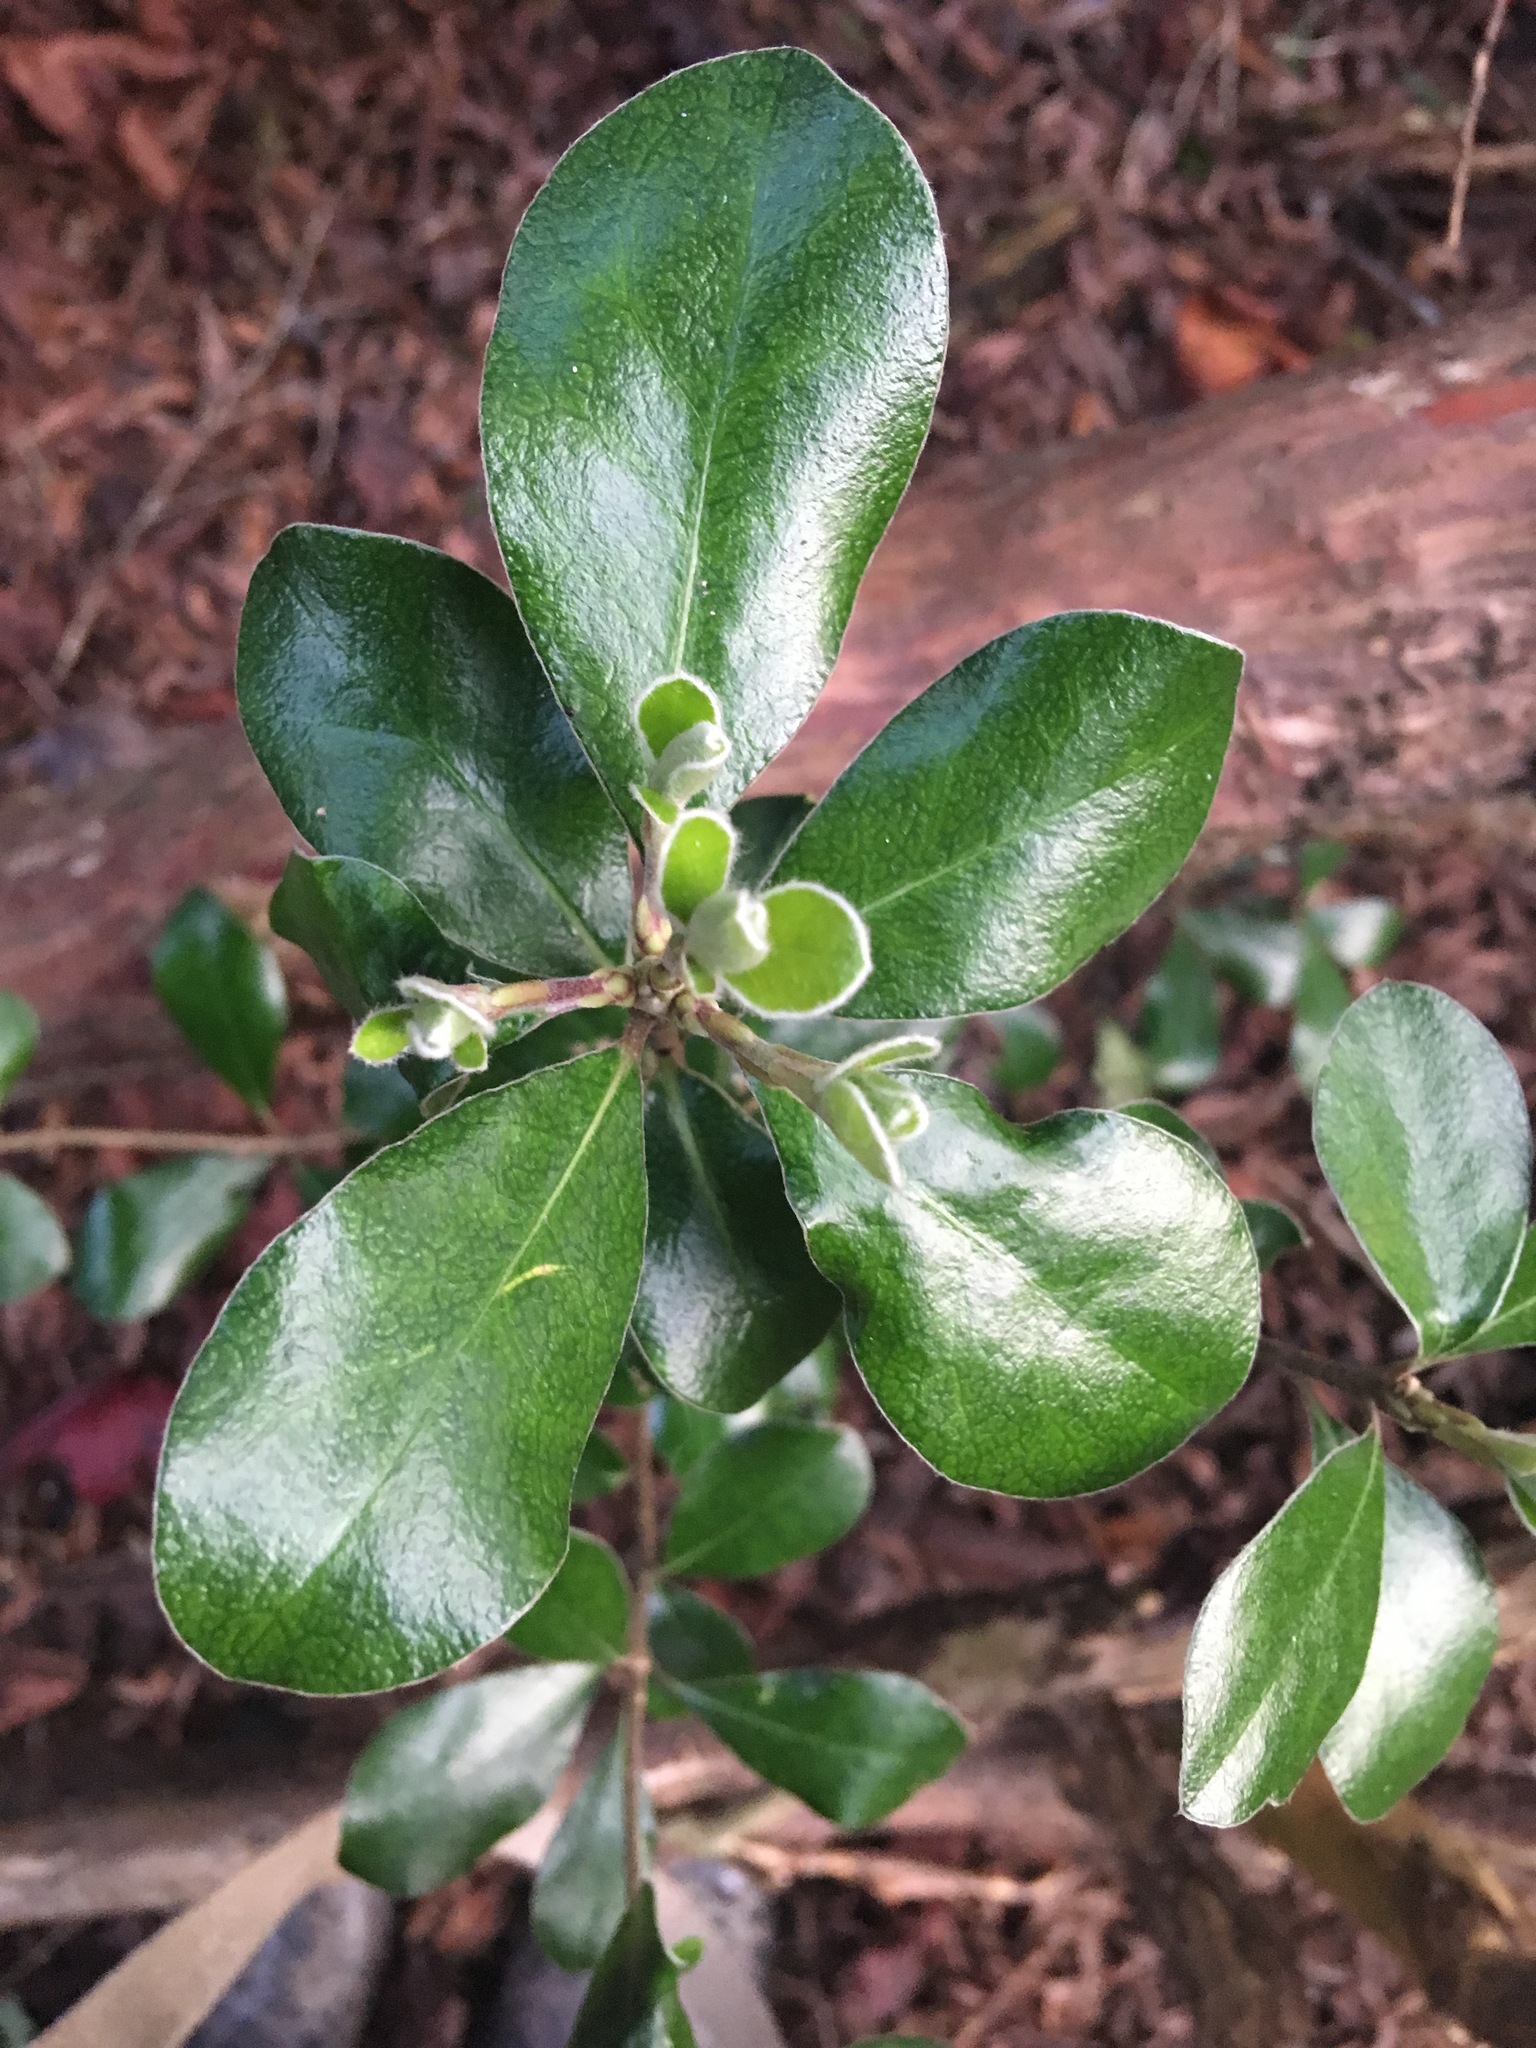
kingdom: Plantae
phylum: Tracheophyta
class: Magnoliopsida
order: Apiales
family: Pittosporaceae
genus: Pittosporum
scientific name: Pittosporum crassifolium
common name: Karo
